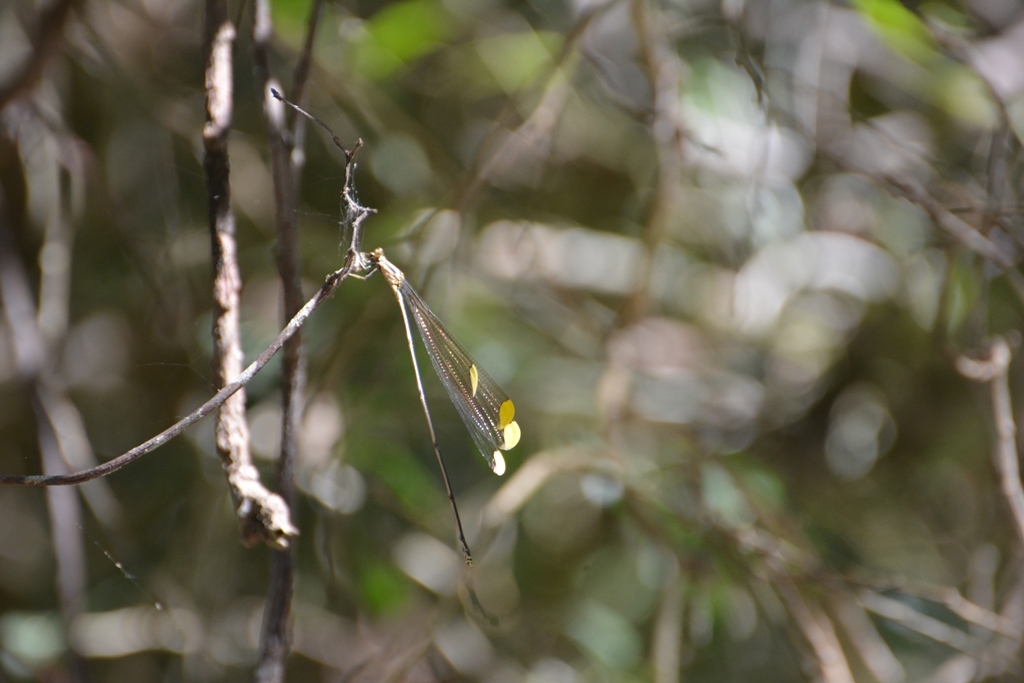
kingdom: Animalia
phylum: Arthropoda
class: Insecta
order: Odonata
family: Coenagrionidae
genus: Mecistogaster
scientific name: Mecistogaster ornata
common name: Ornate helicopter
